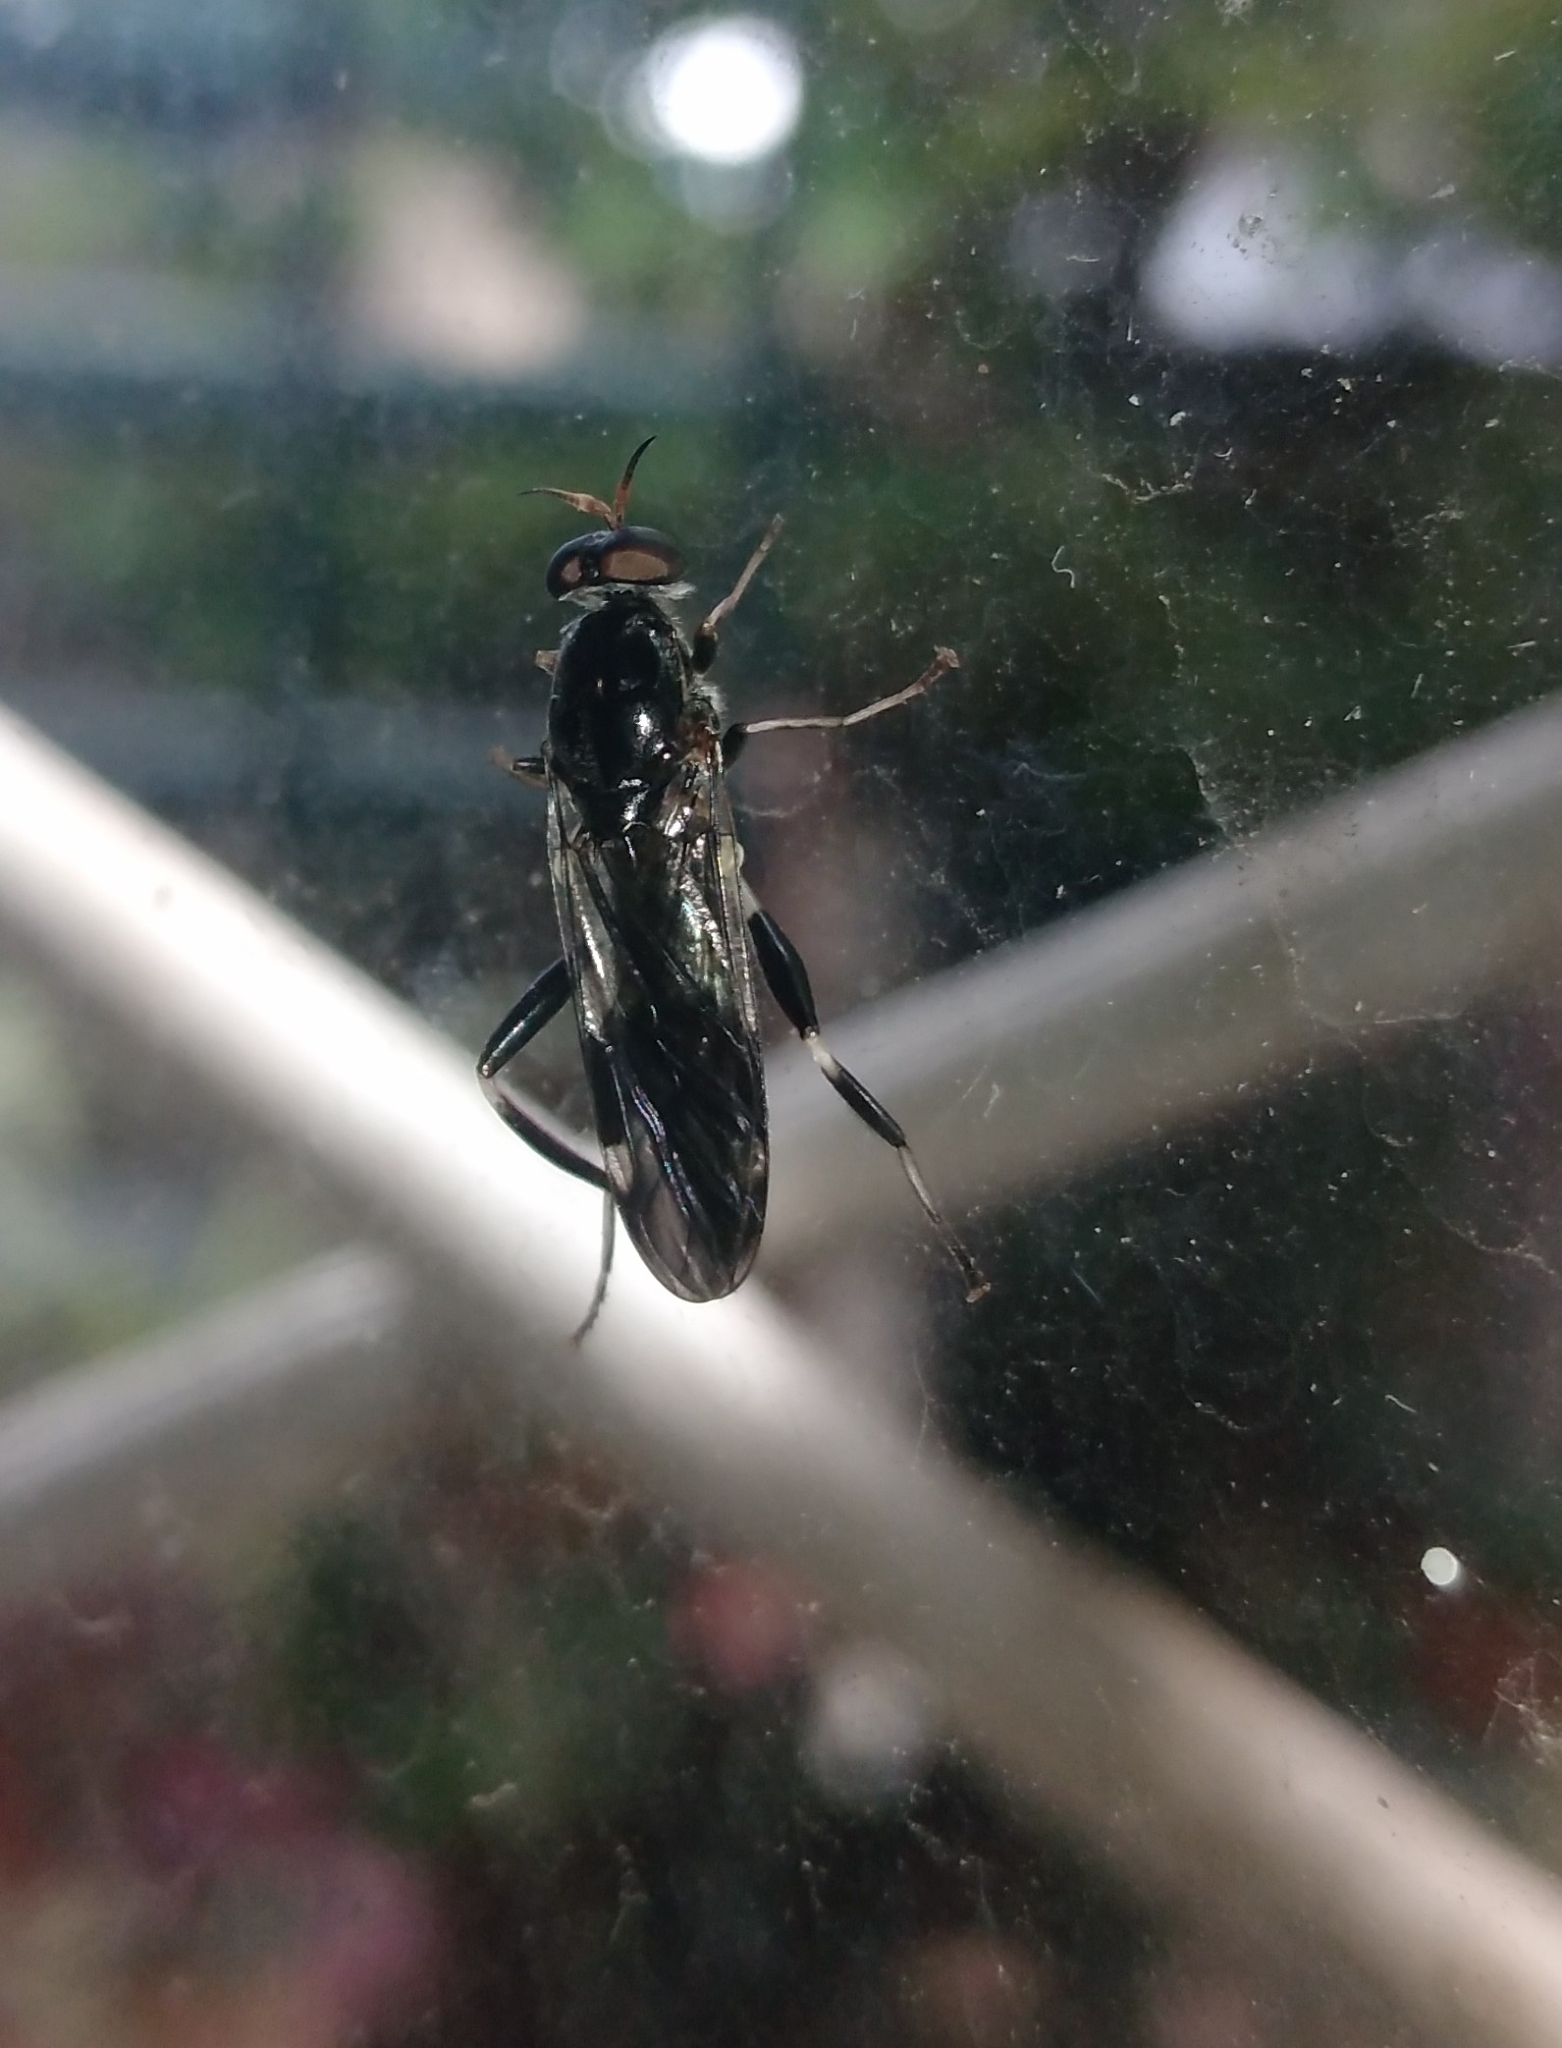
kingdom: Animalia
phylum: Arthropoda
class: Insecta
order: Diptera
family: Stratiomyidae
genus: Exaireta
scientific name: Exaireta spinigera
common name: Blue soldier fly
